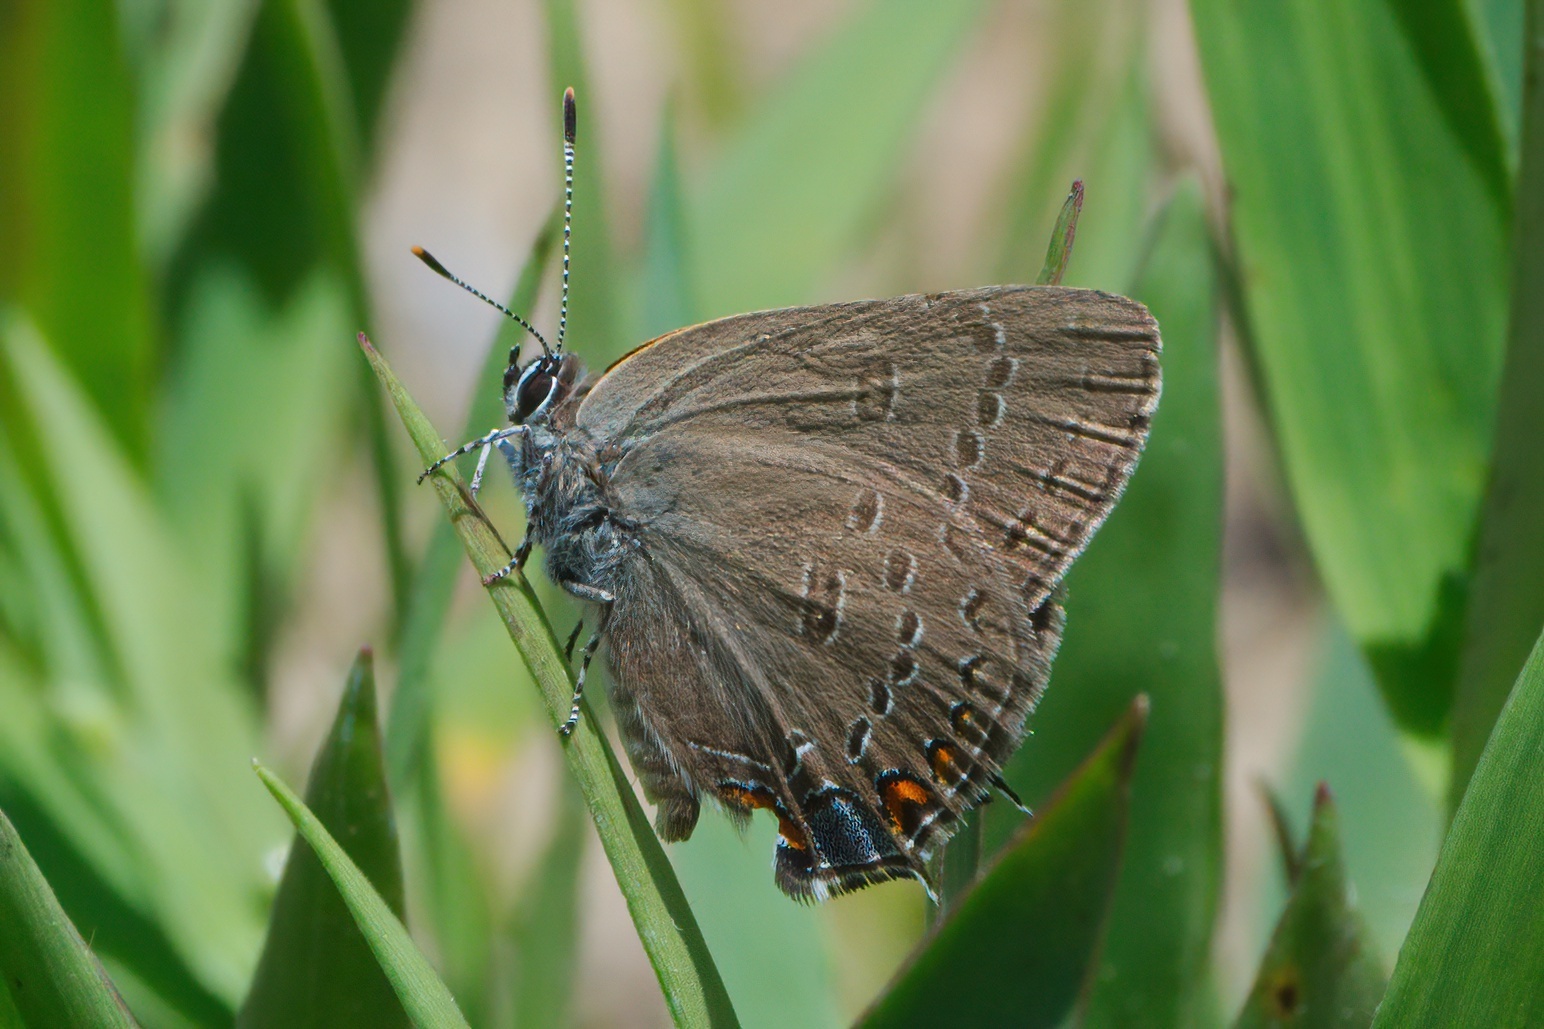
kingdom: Animalia
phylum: Arthropoda
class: Insecta
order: Lepidoptera
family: Lycaenidae
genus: Satyrium
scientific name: Satyrium edwardsii
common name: Edwards' hairstreak
